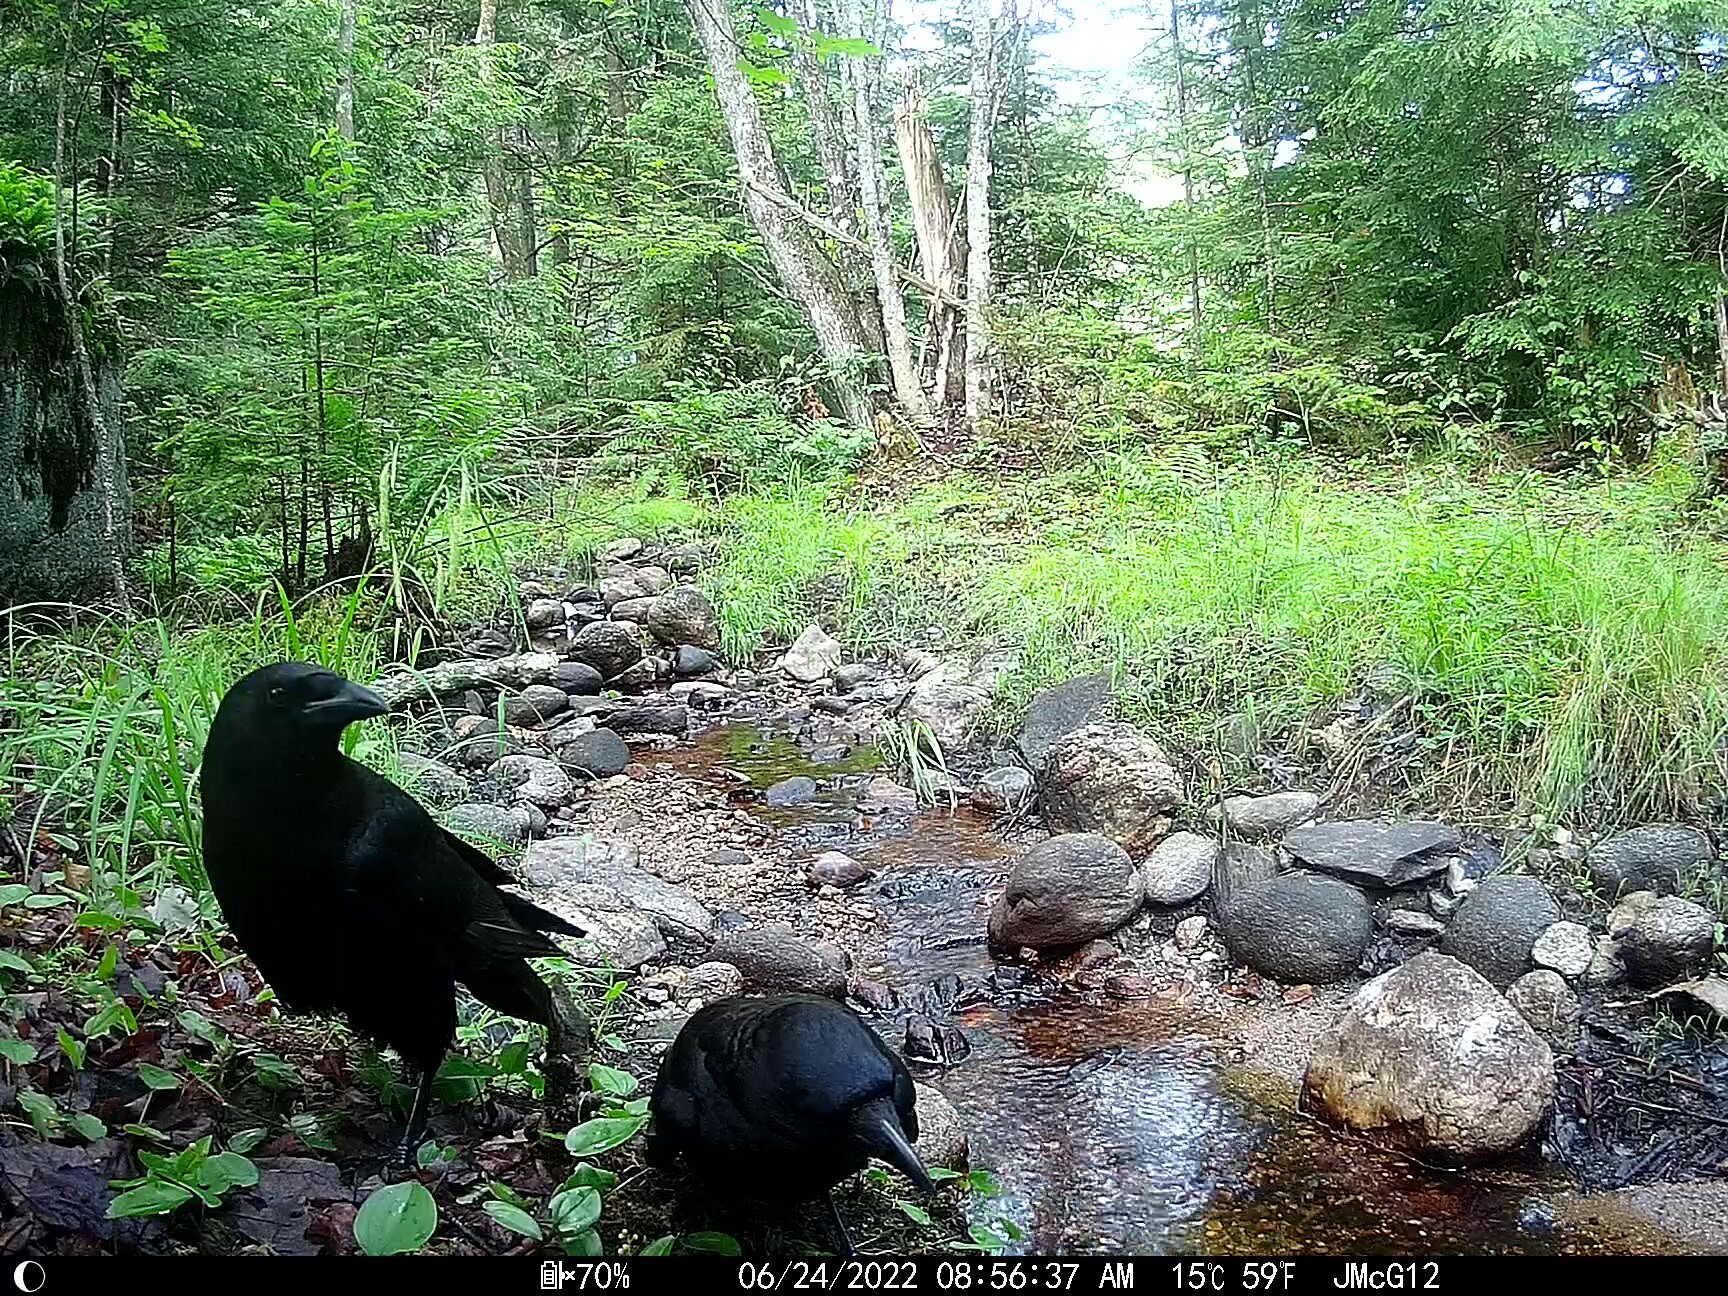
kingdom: Animalia
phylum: Chordata
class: Aves
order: Passeriformes
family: Corvidae
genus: Corvus
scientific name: Corvus brachyrhynchos
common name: American crow
